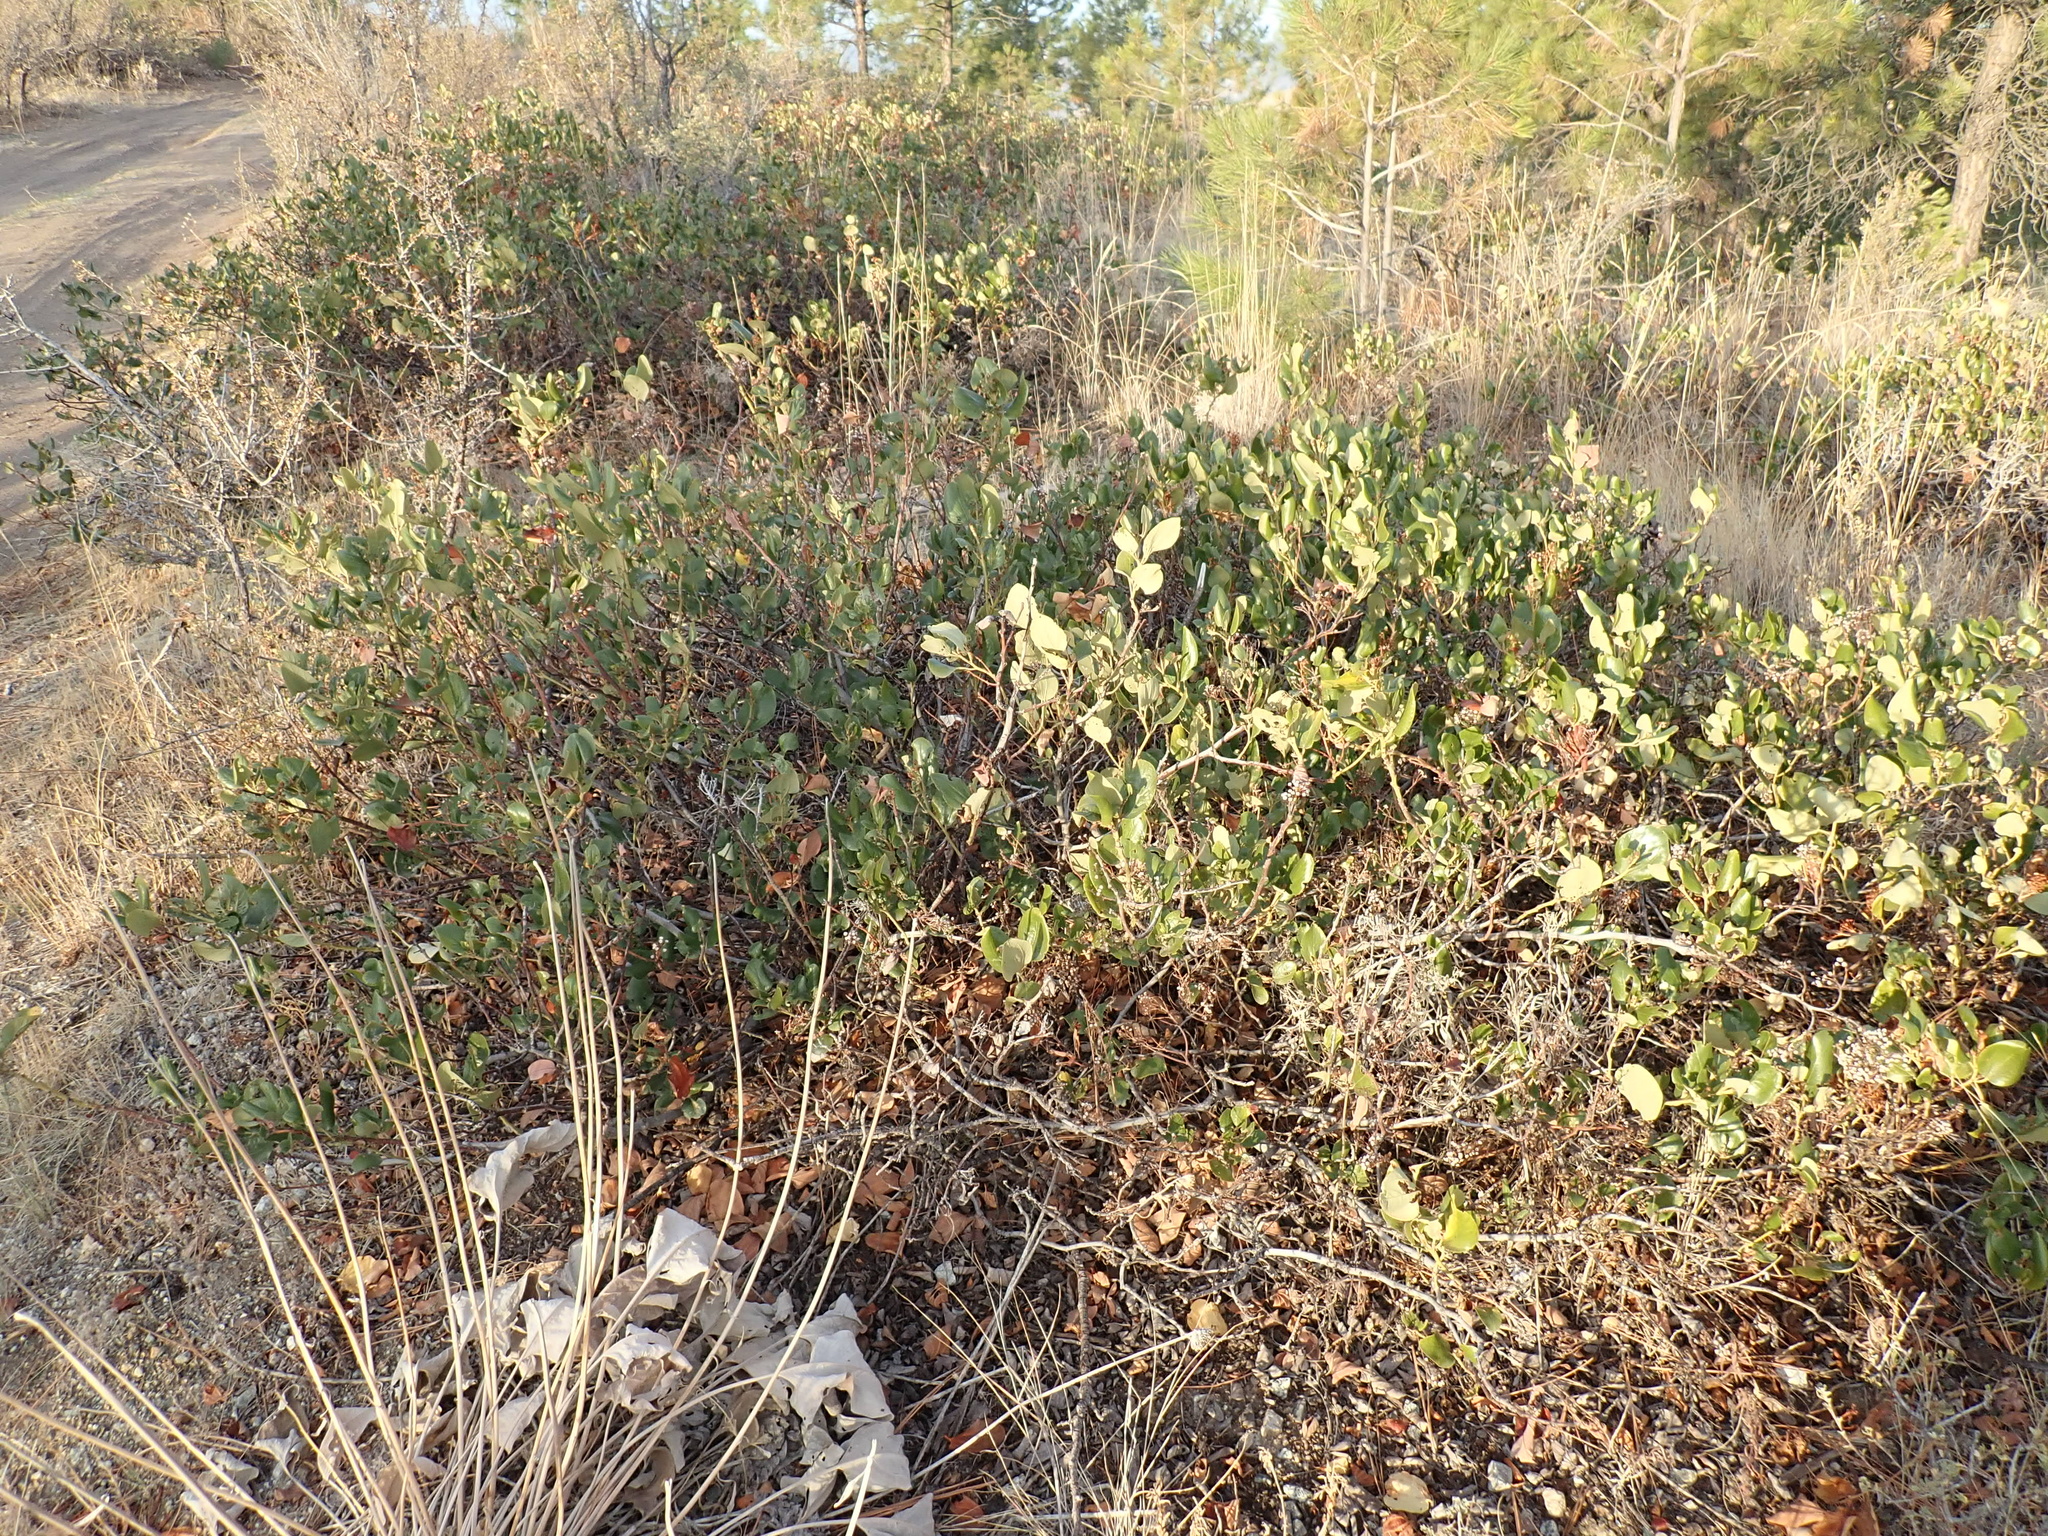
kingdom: Plantae
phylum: Tracheophyta
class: Magnoliopsida
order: Rosales
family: Rhamnaceae
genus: Ceanothus
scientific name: Ceanothus velutinus
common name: Snowbrush
